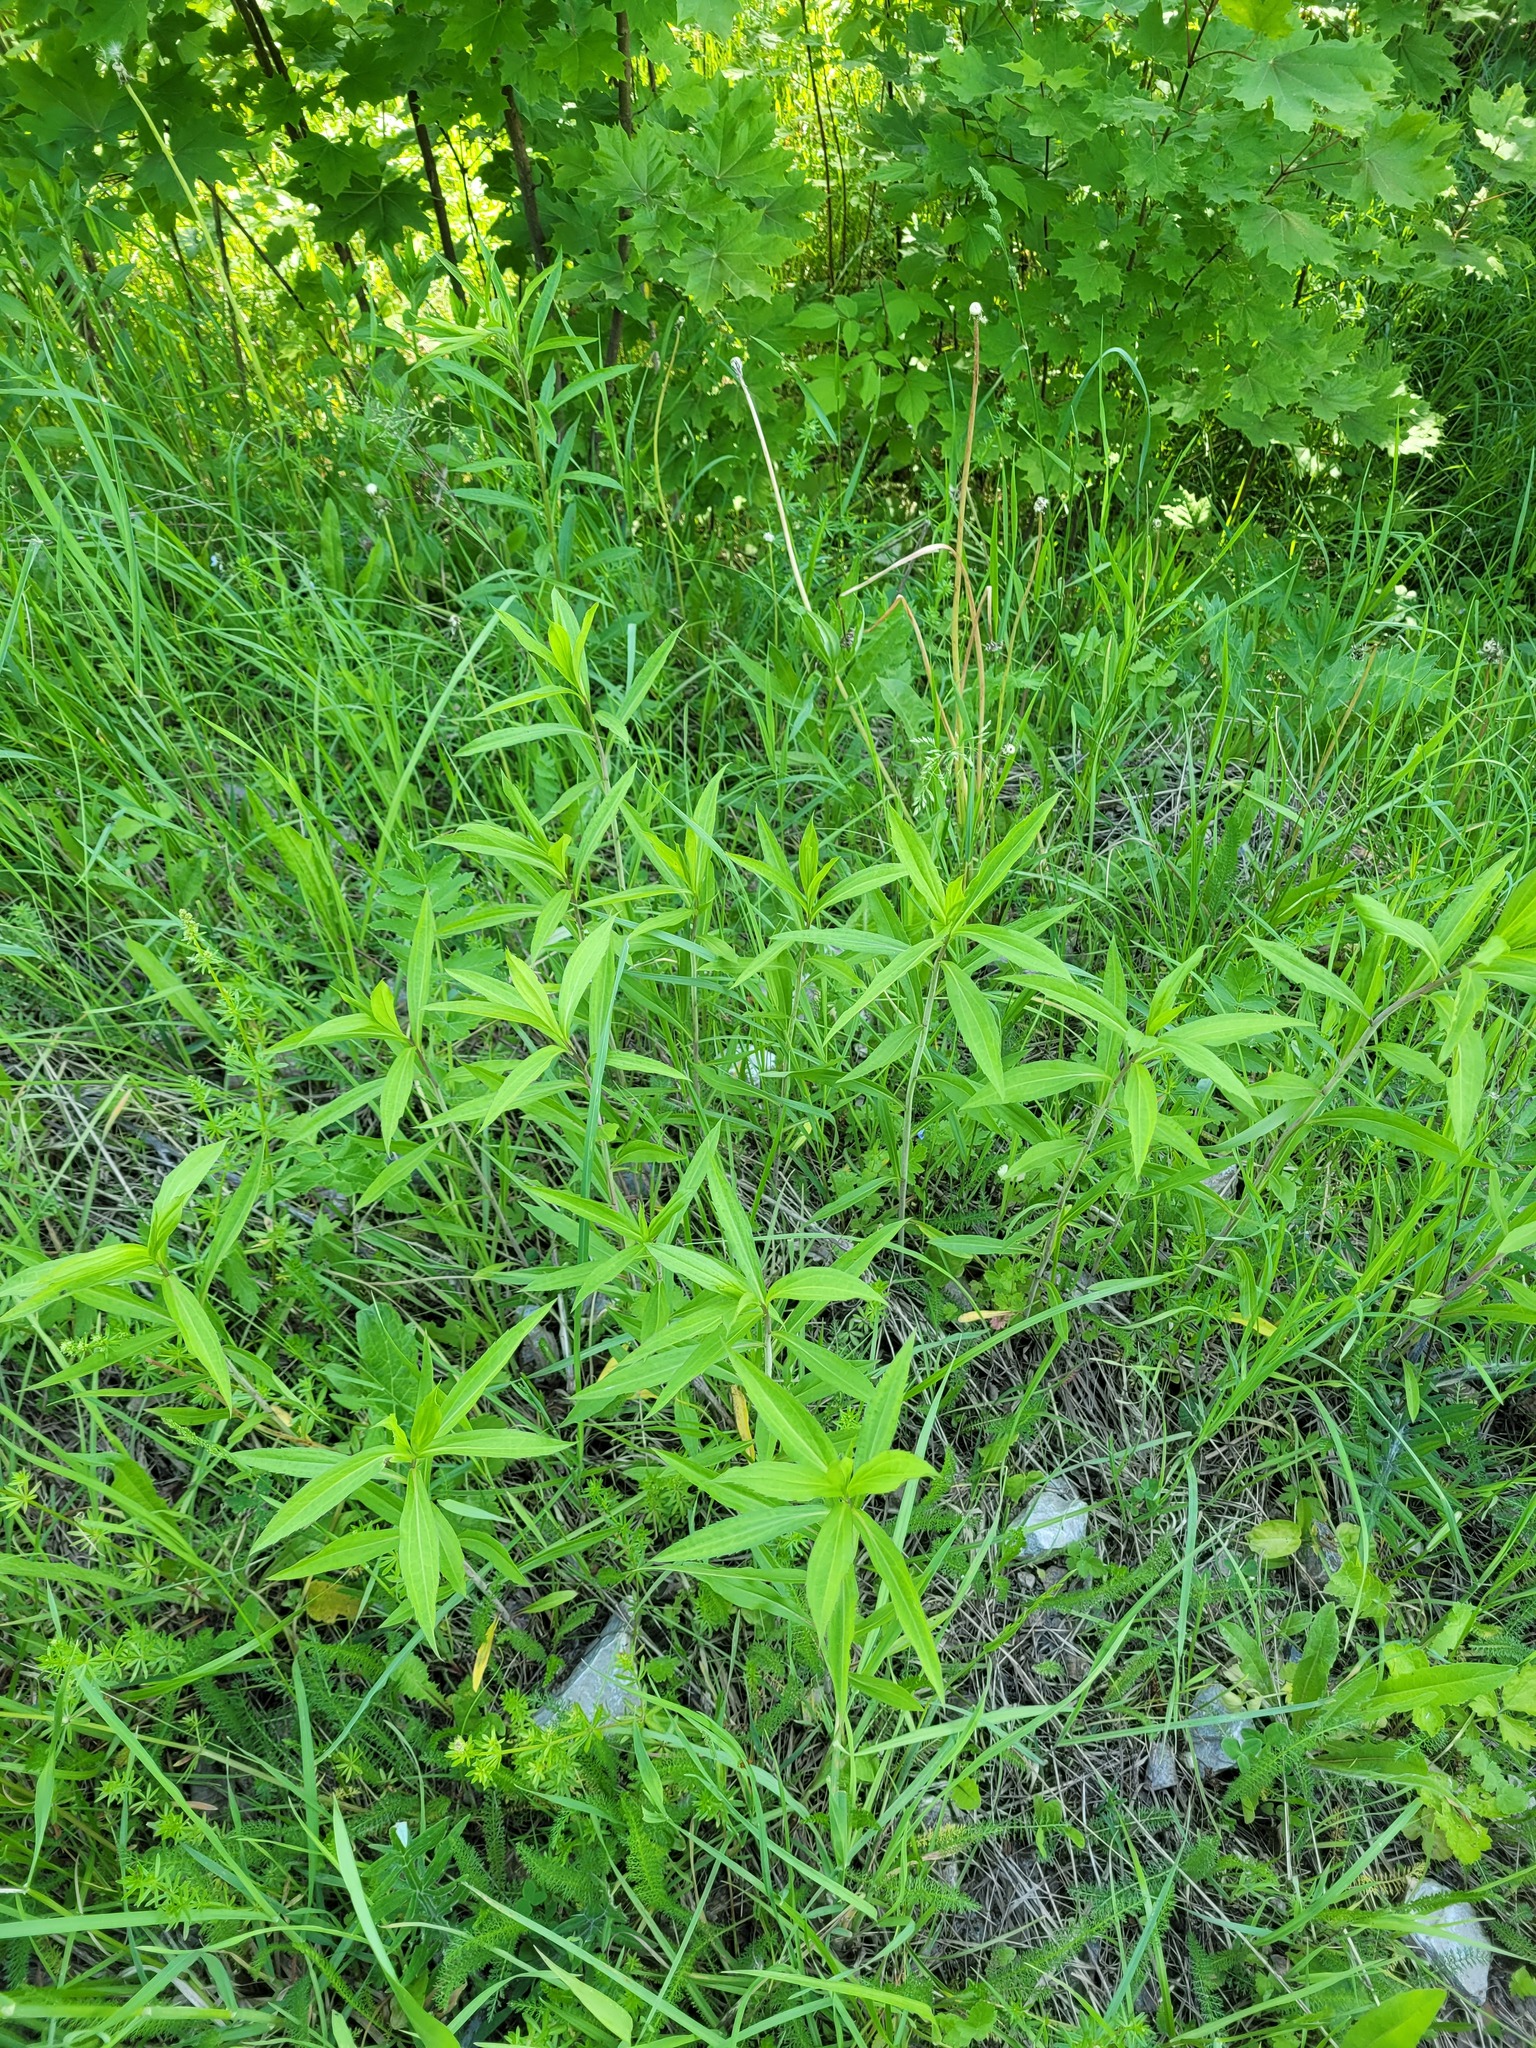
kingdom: Plantae
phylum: Tracheophyta
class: Magnoliopsida
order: Asterales
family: Asteraceae
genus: Solidago
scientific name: Solidago gigantea
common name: Giant goldenrod
